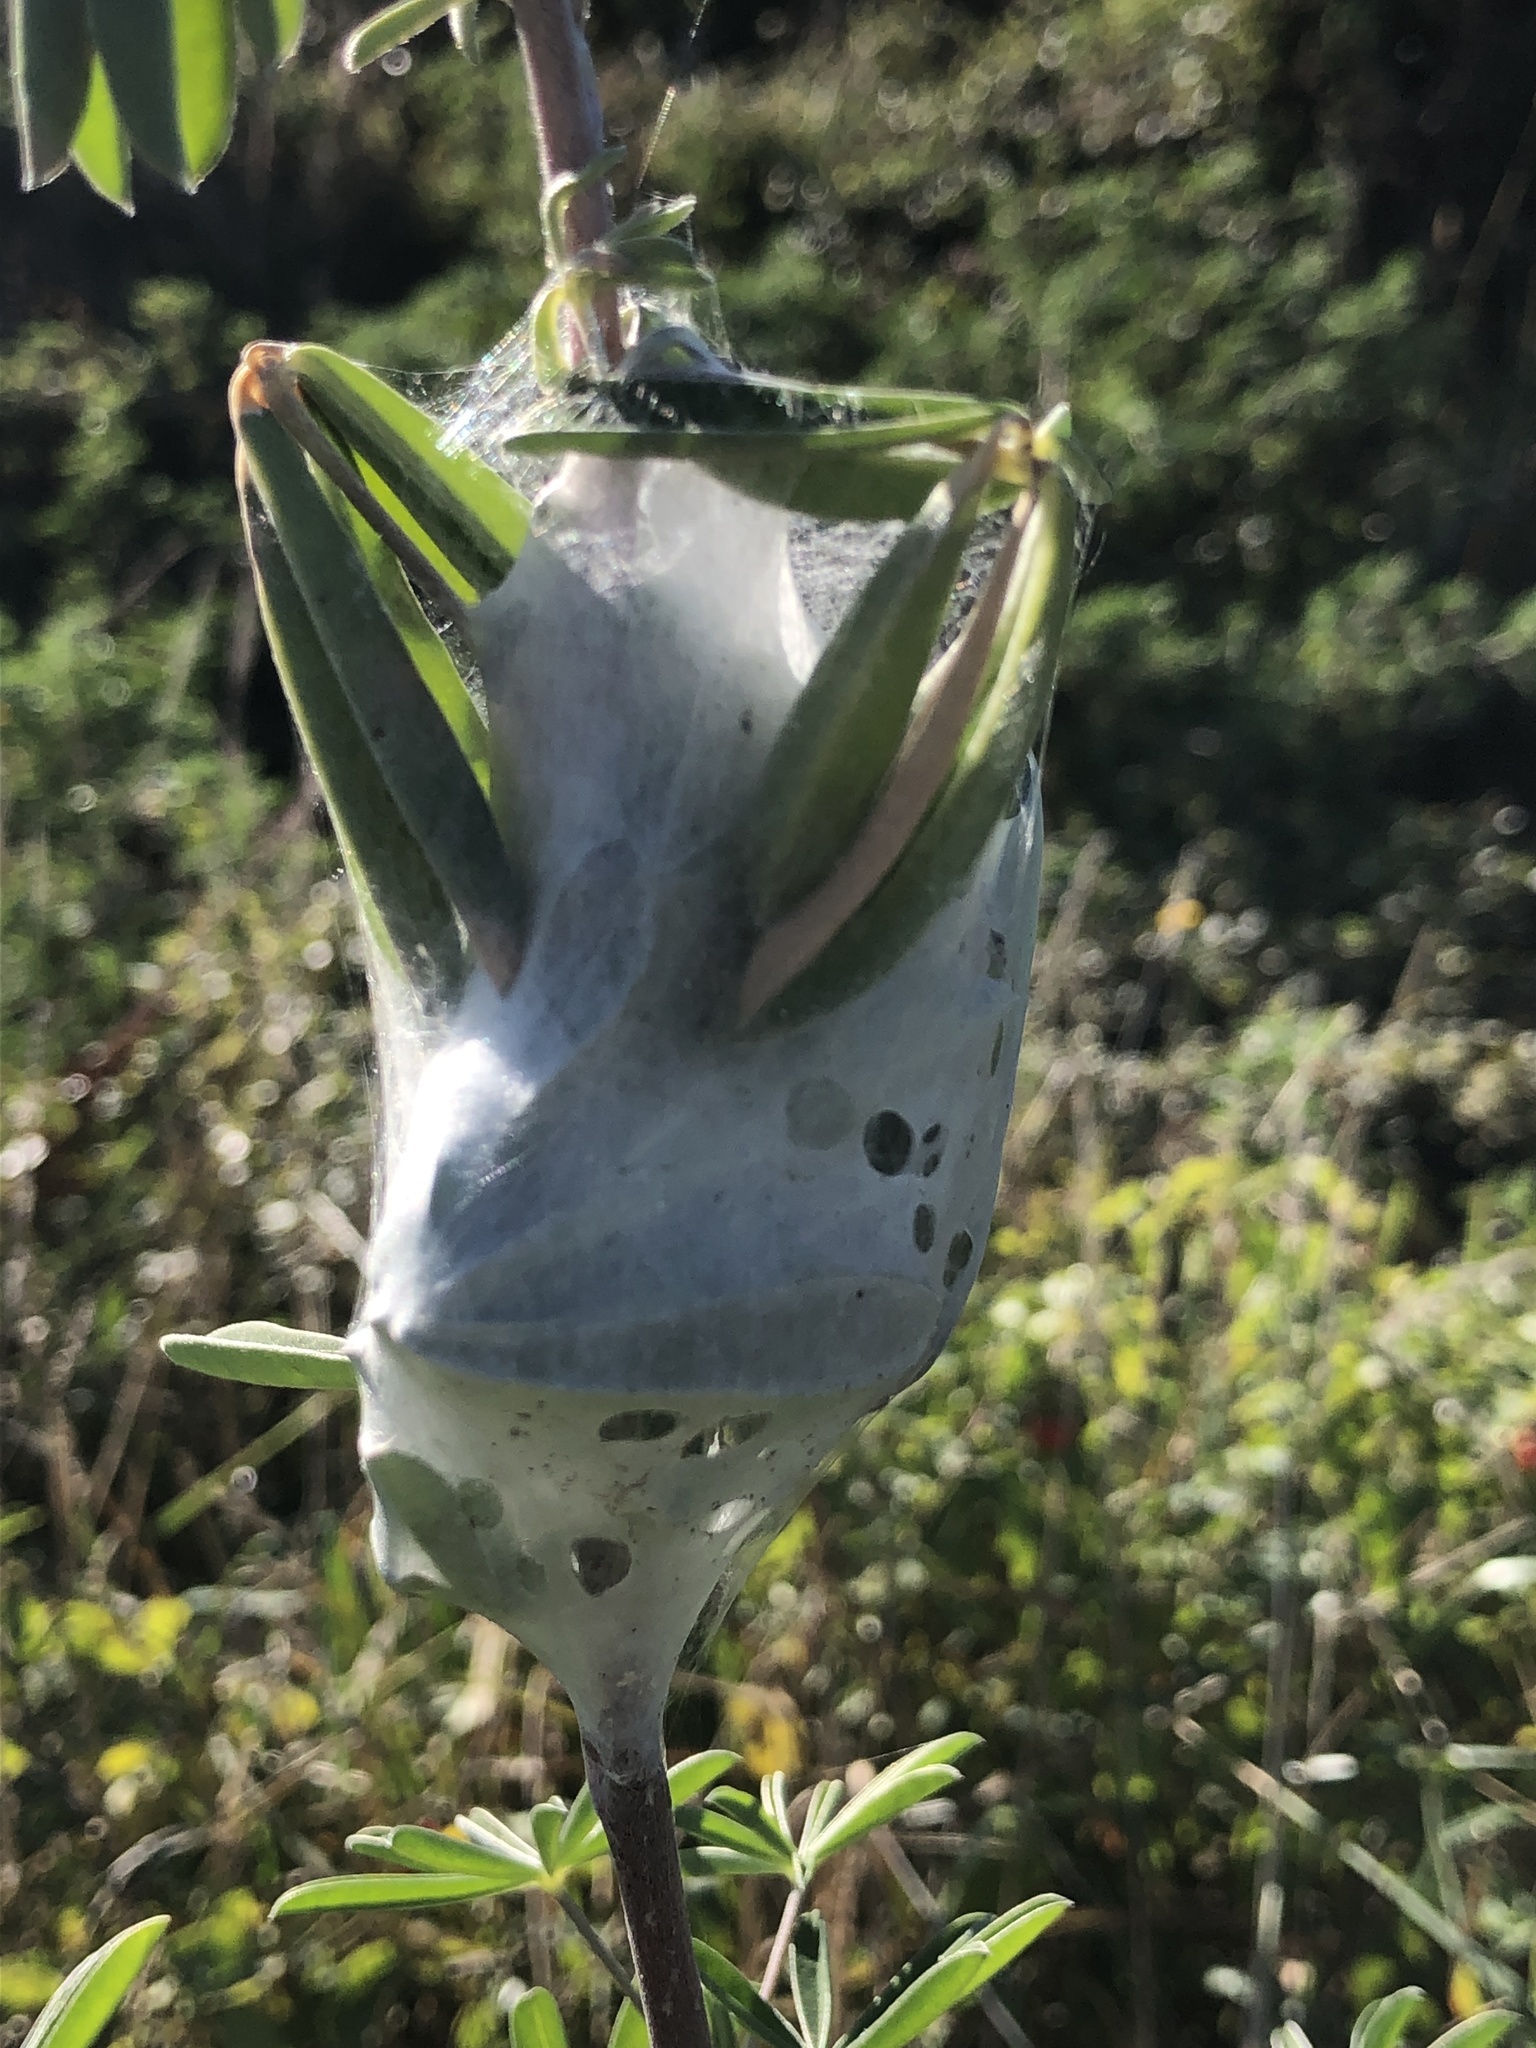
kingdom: Animalia
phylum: Arthropoda
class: Arachnida
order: Araneae
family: Pisauridae
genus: Dolomedes
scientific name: Dolomedes minor
